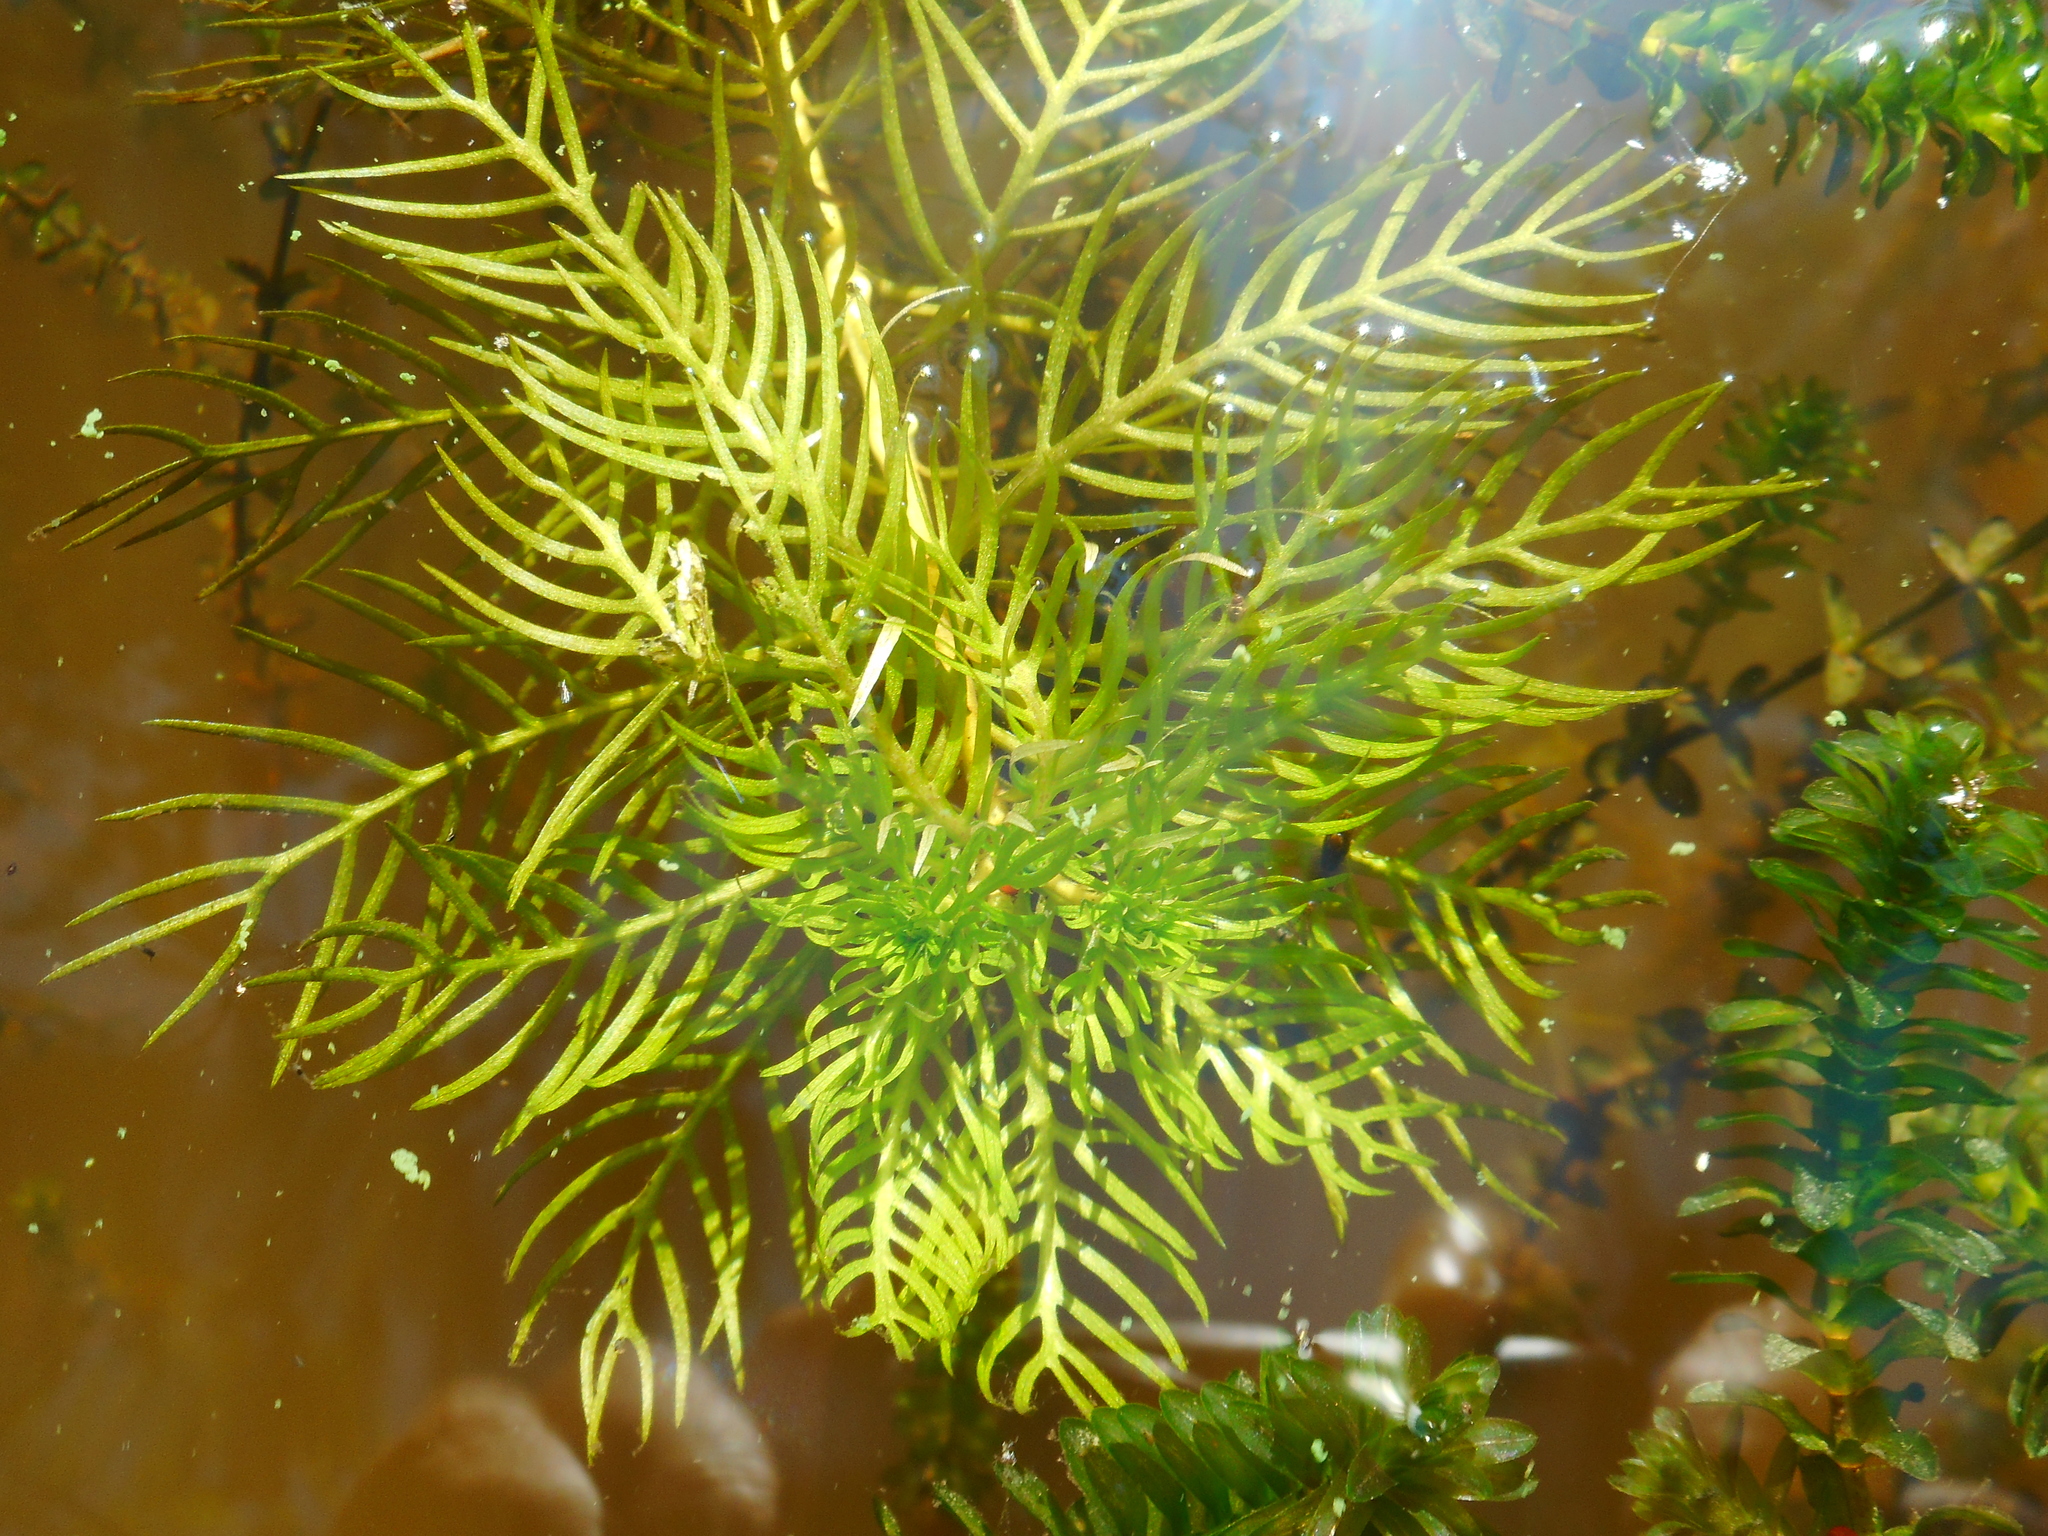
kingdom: Plantae
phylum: Tracheophyta
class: Magnoliopsida
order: Ericales
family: Primulaceae
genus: Hottonia
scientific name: Hottonia palustris
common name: Water-violet
